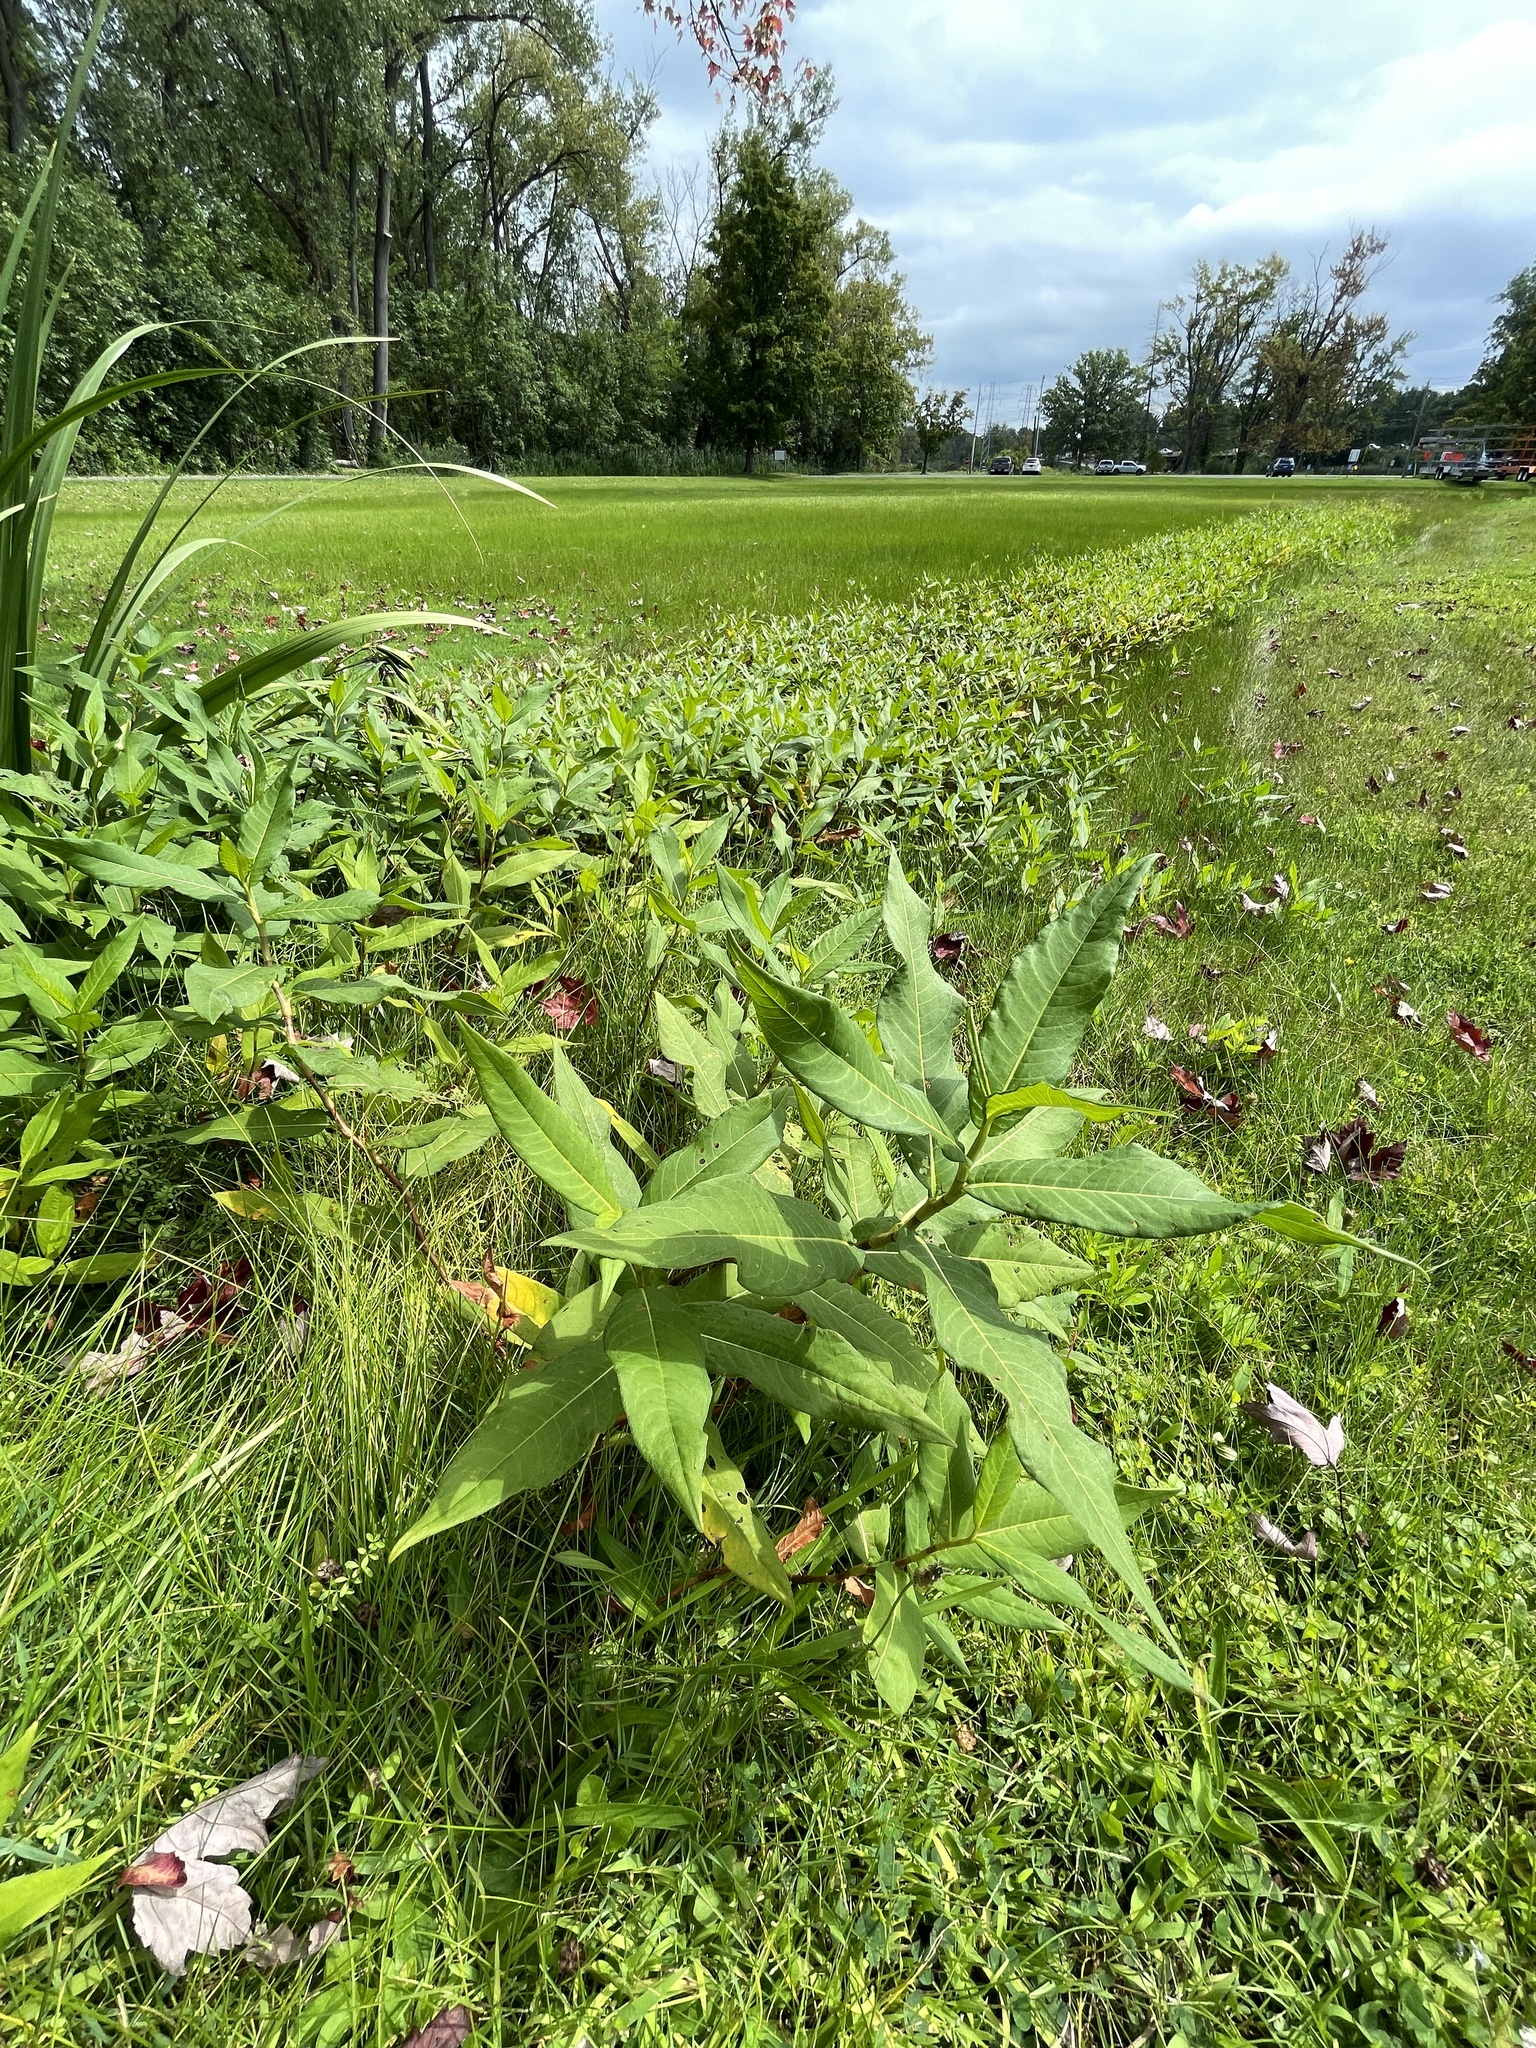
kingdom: Plantae
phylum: Tracheophyta
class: Magnoliopsida
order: Caryophyllales
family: Polygonaceae
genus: Persicaria
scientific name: Persicaria amphibia
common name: Amphibious bistort
